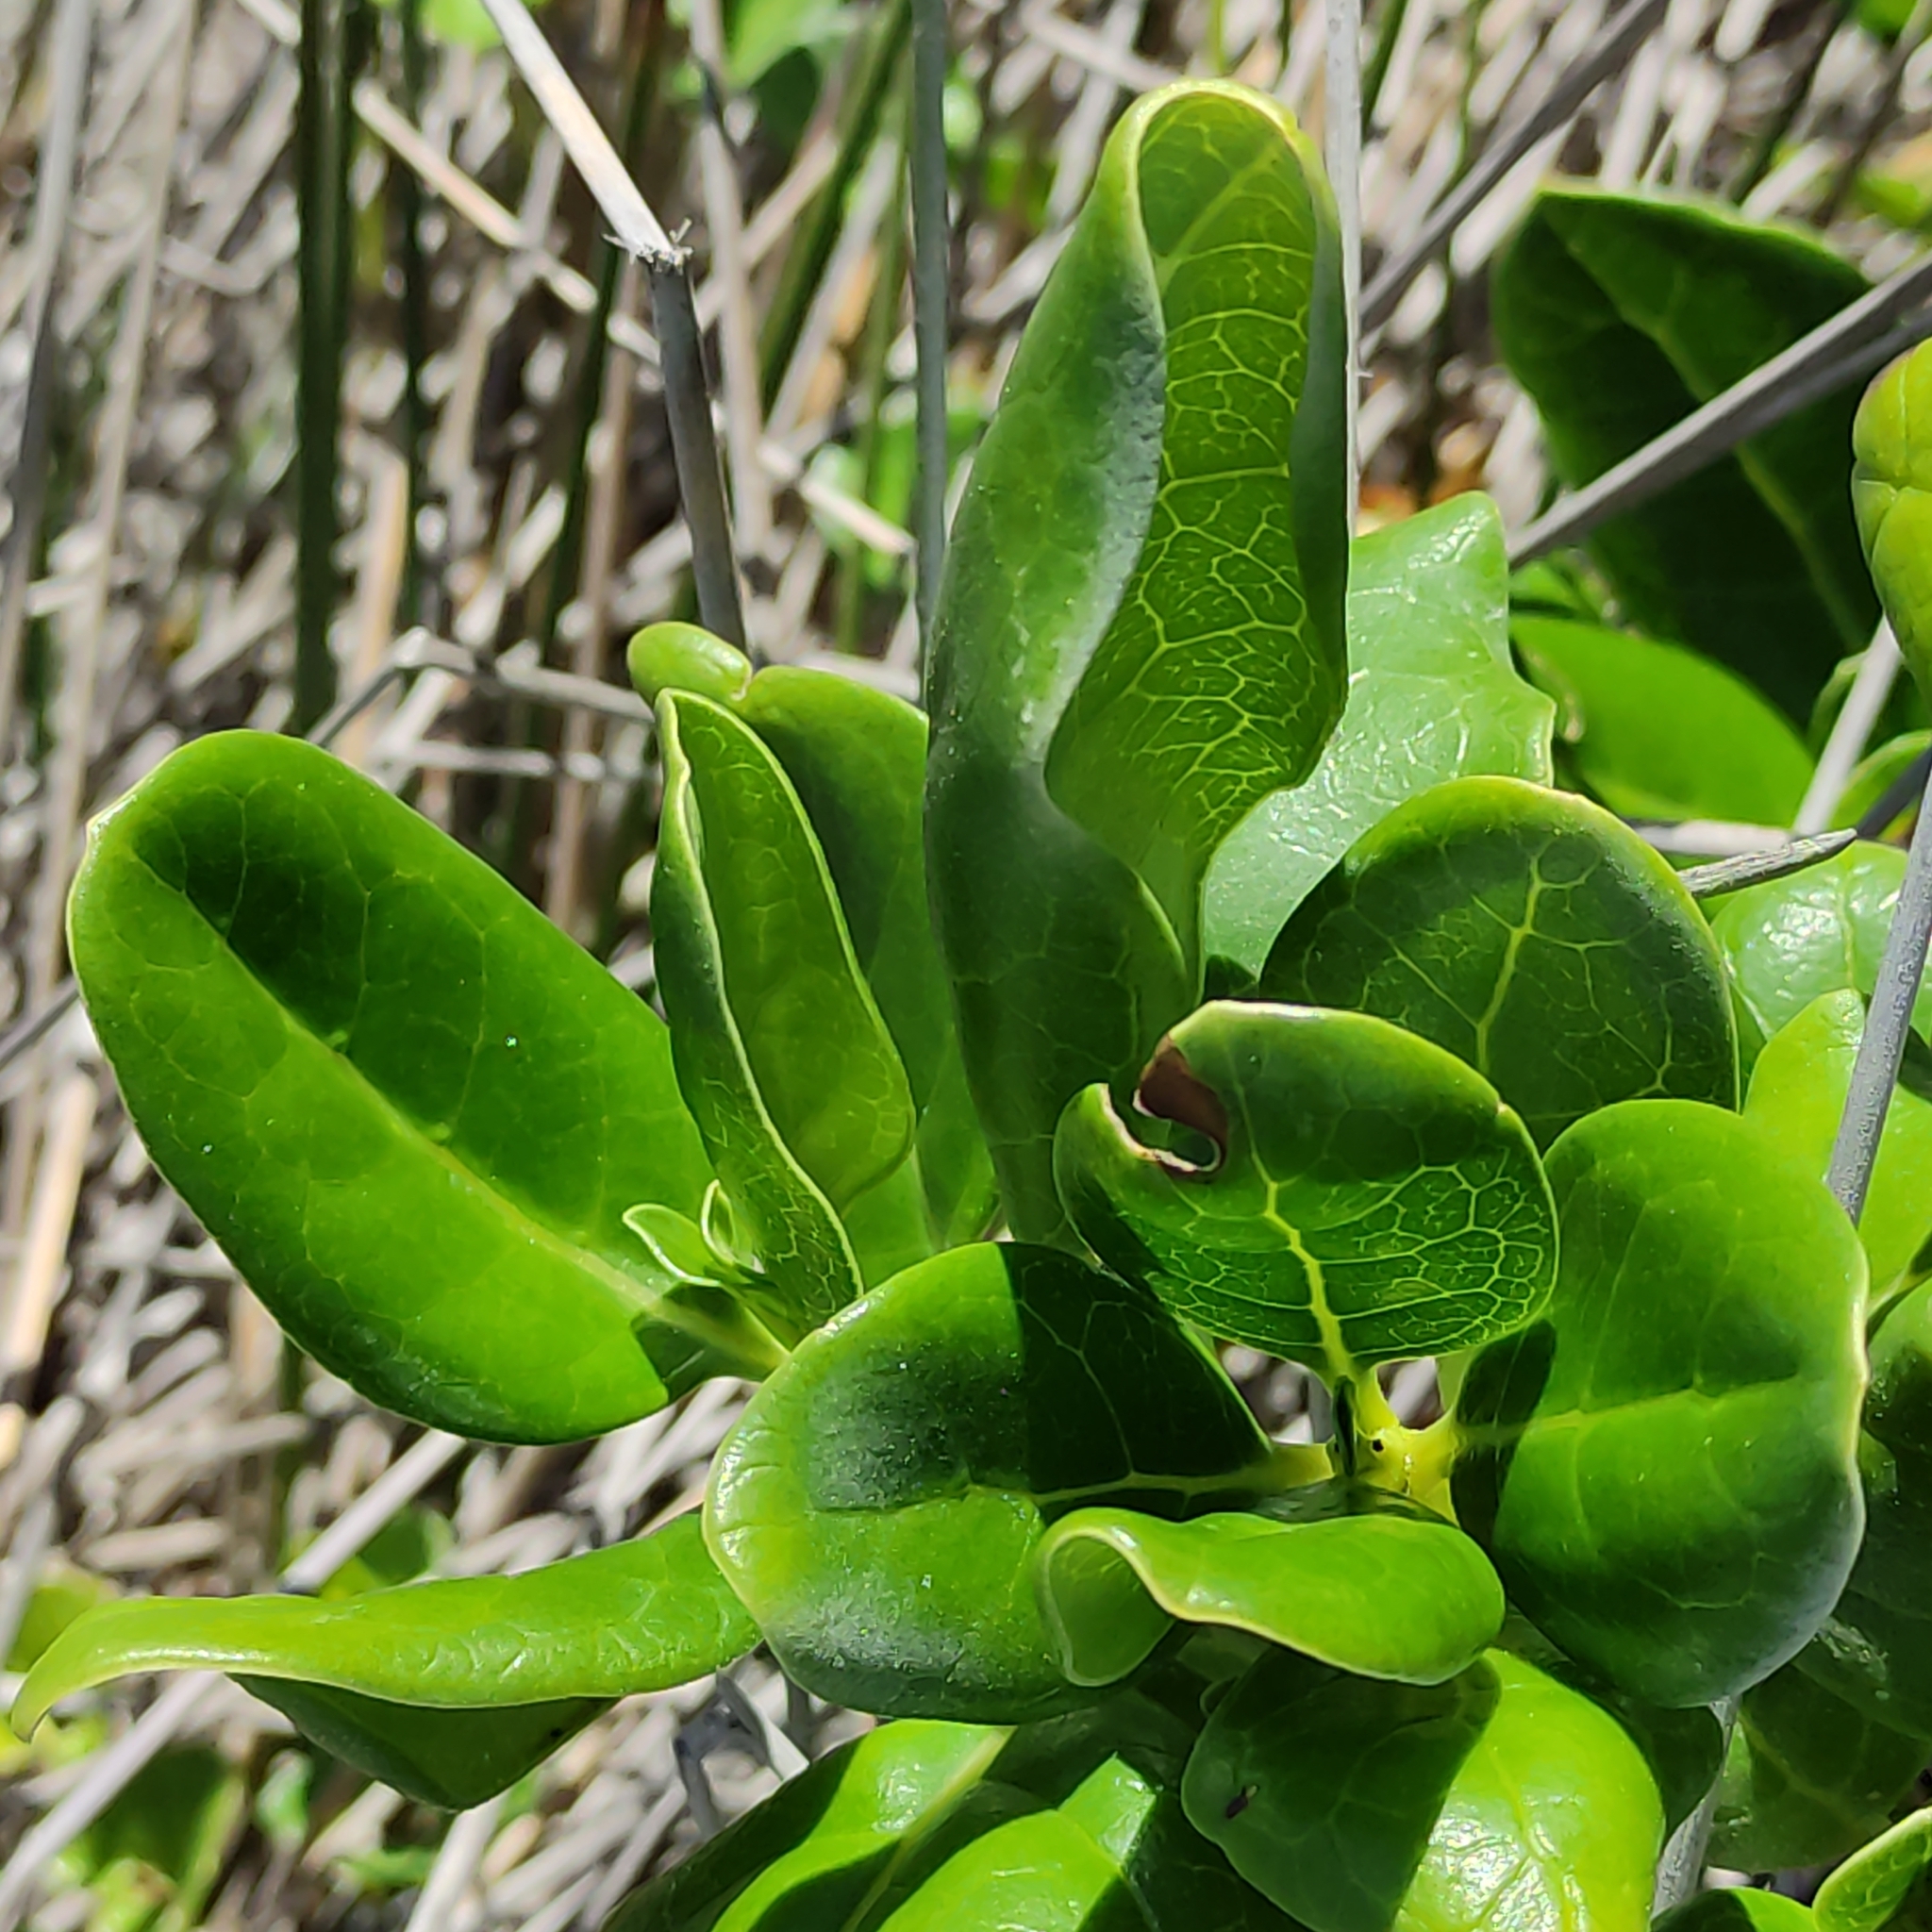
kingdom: Plantae
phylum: Tracheophyta
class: Magnoliopsida
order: Gentianales
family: Rubiaceae
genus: Coprosma
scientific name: Coprosma repens
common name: Tree bedstraw
